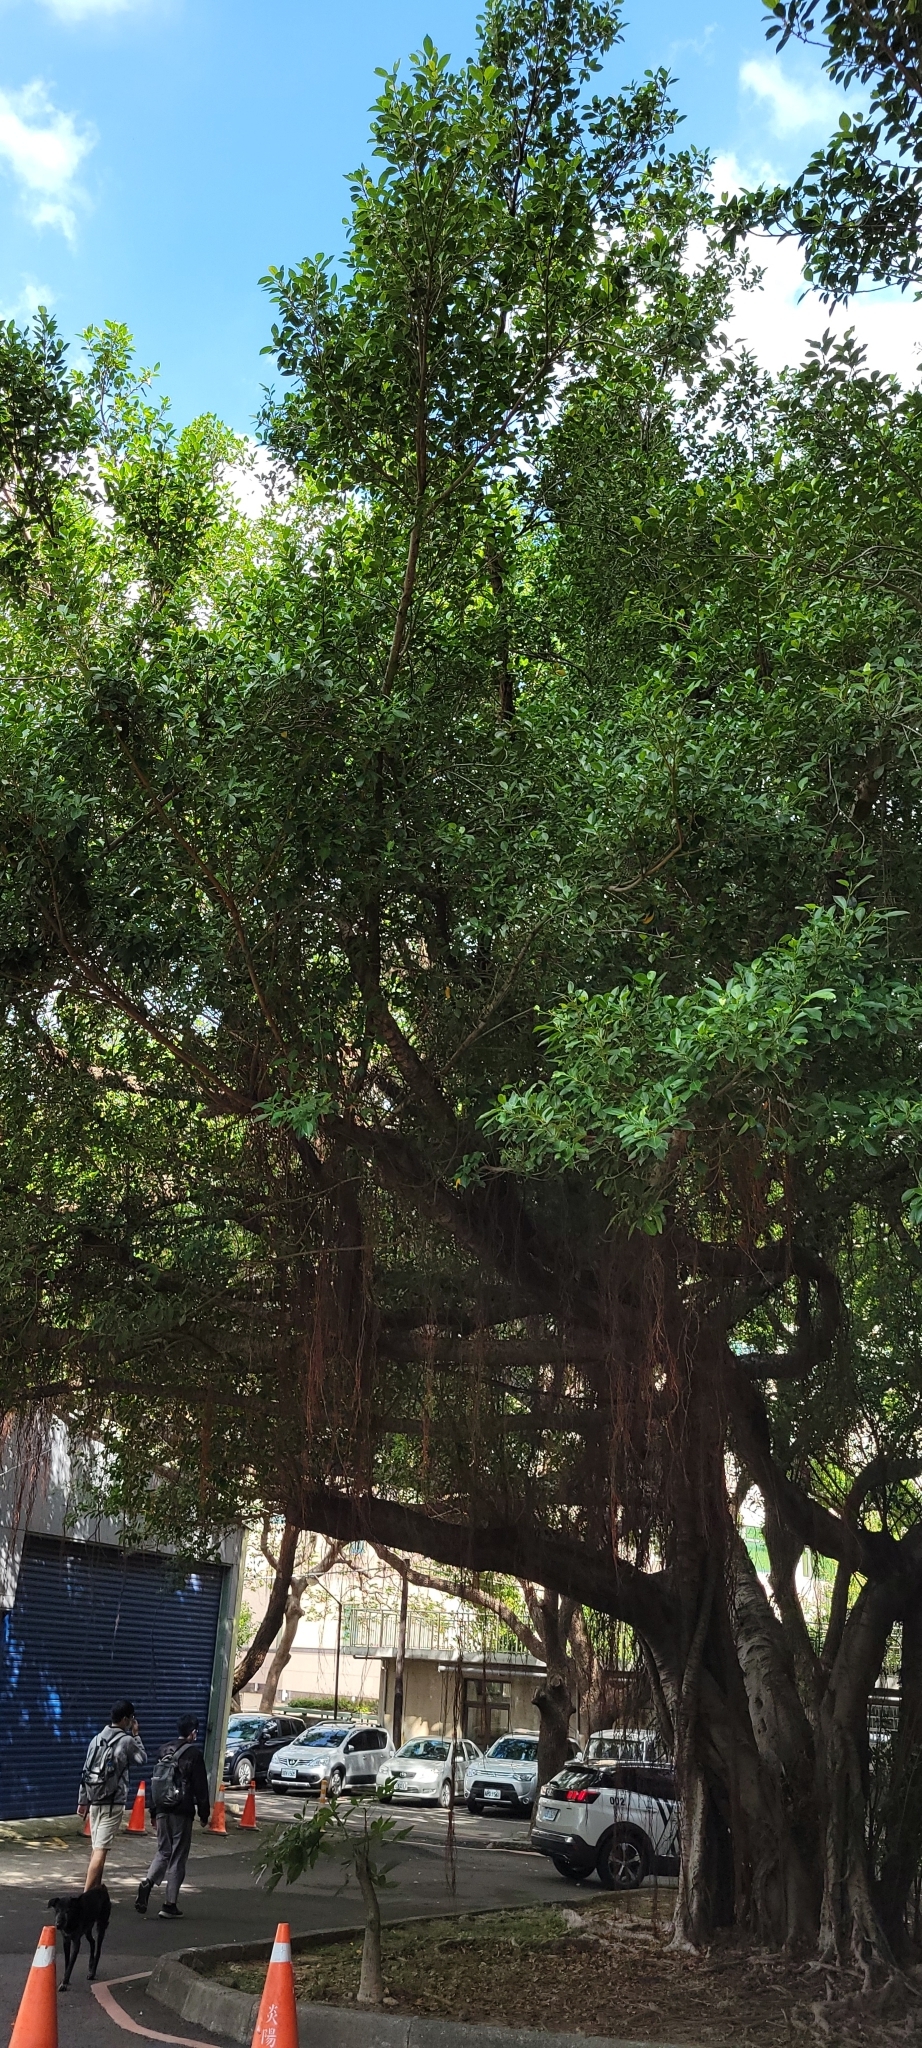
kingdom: Plantae
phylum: Tracheophyta
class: Magnoliopsida
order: Rosales
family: Moraceae
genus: Ficus
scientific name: Ficus microcarpa
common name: Chinese banyan
